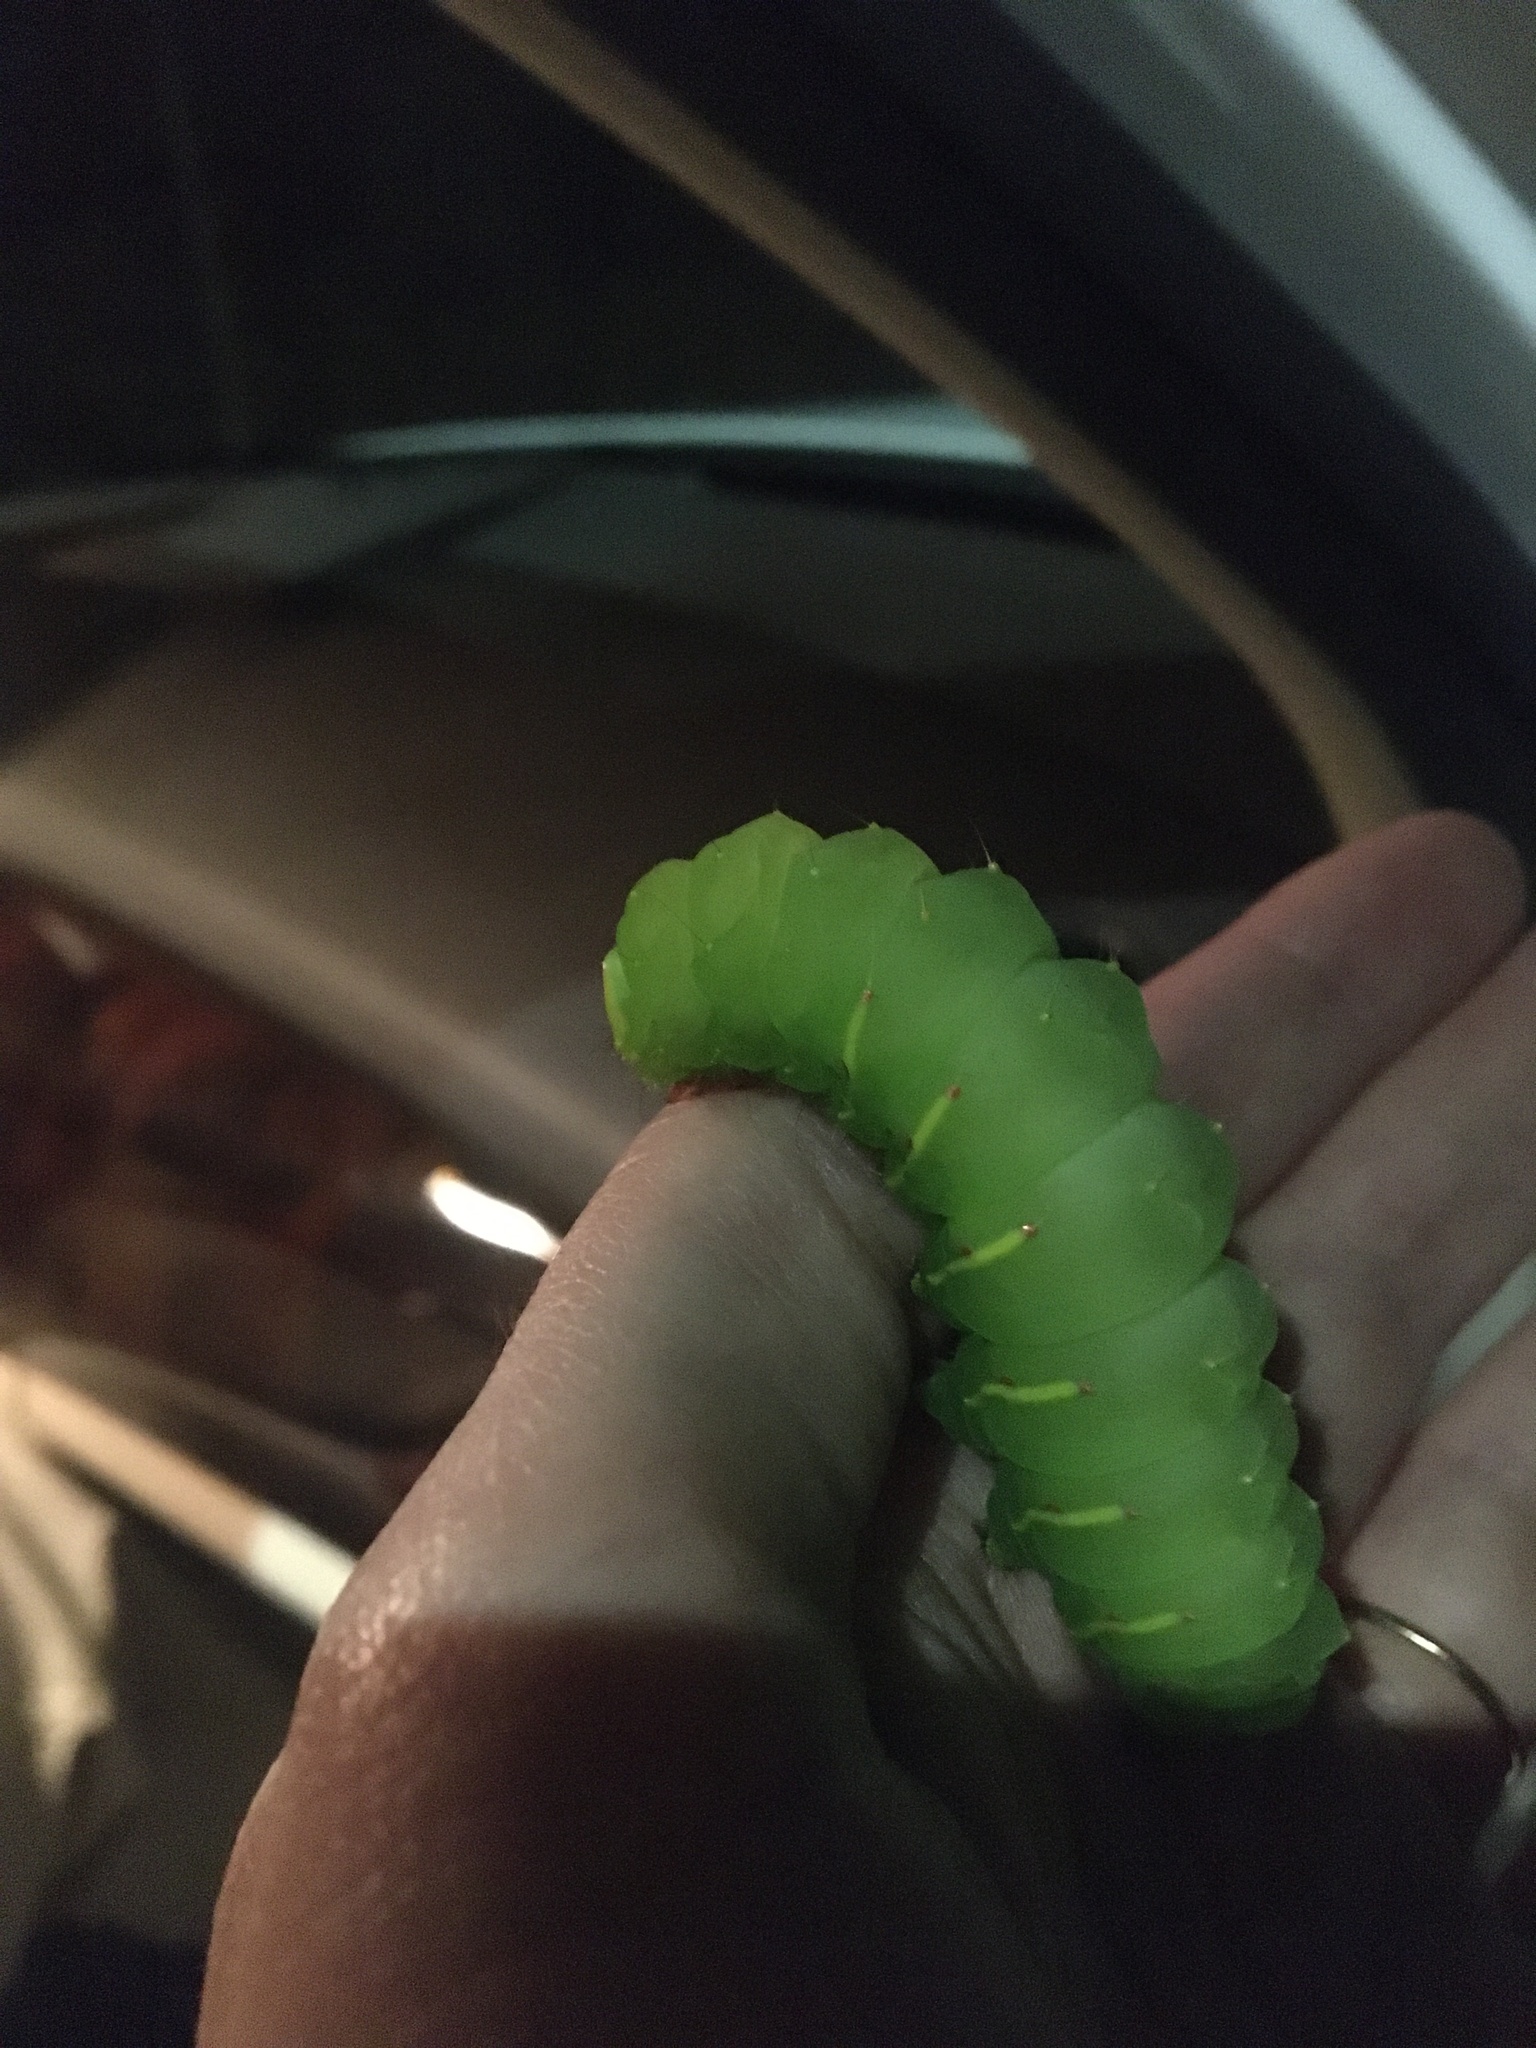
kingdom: Animalia
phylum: Arthropoda
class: Insecta
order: Lepidoptera
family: Saturniidae
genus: Antheraea
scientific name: Antheraea polyphemus
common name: Polyphemus moth
